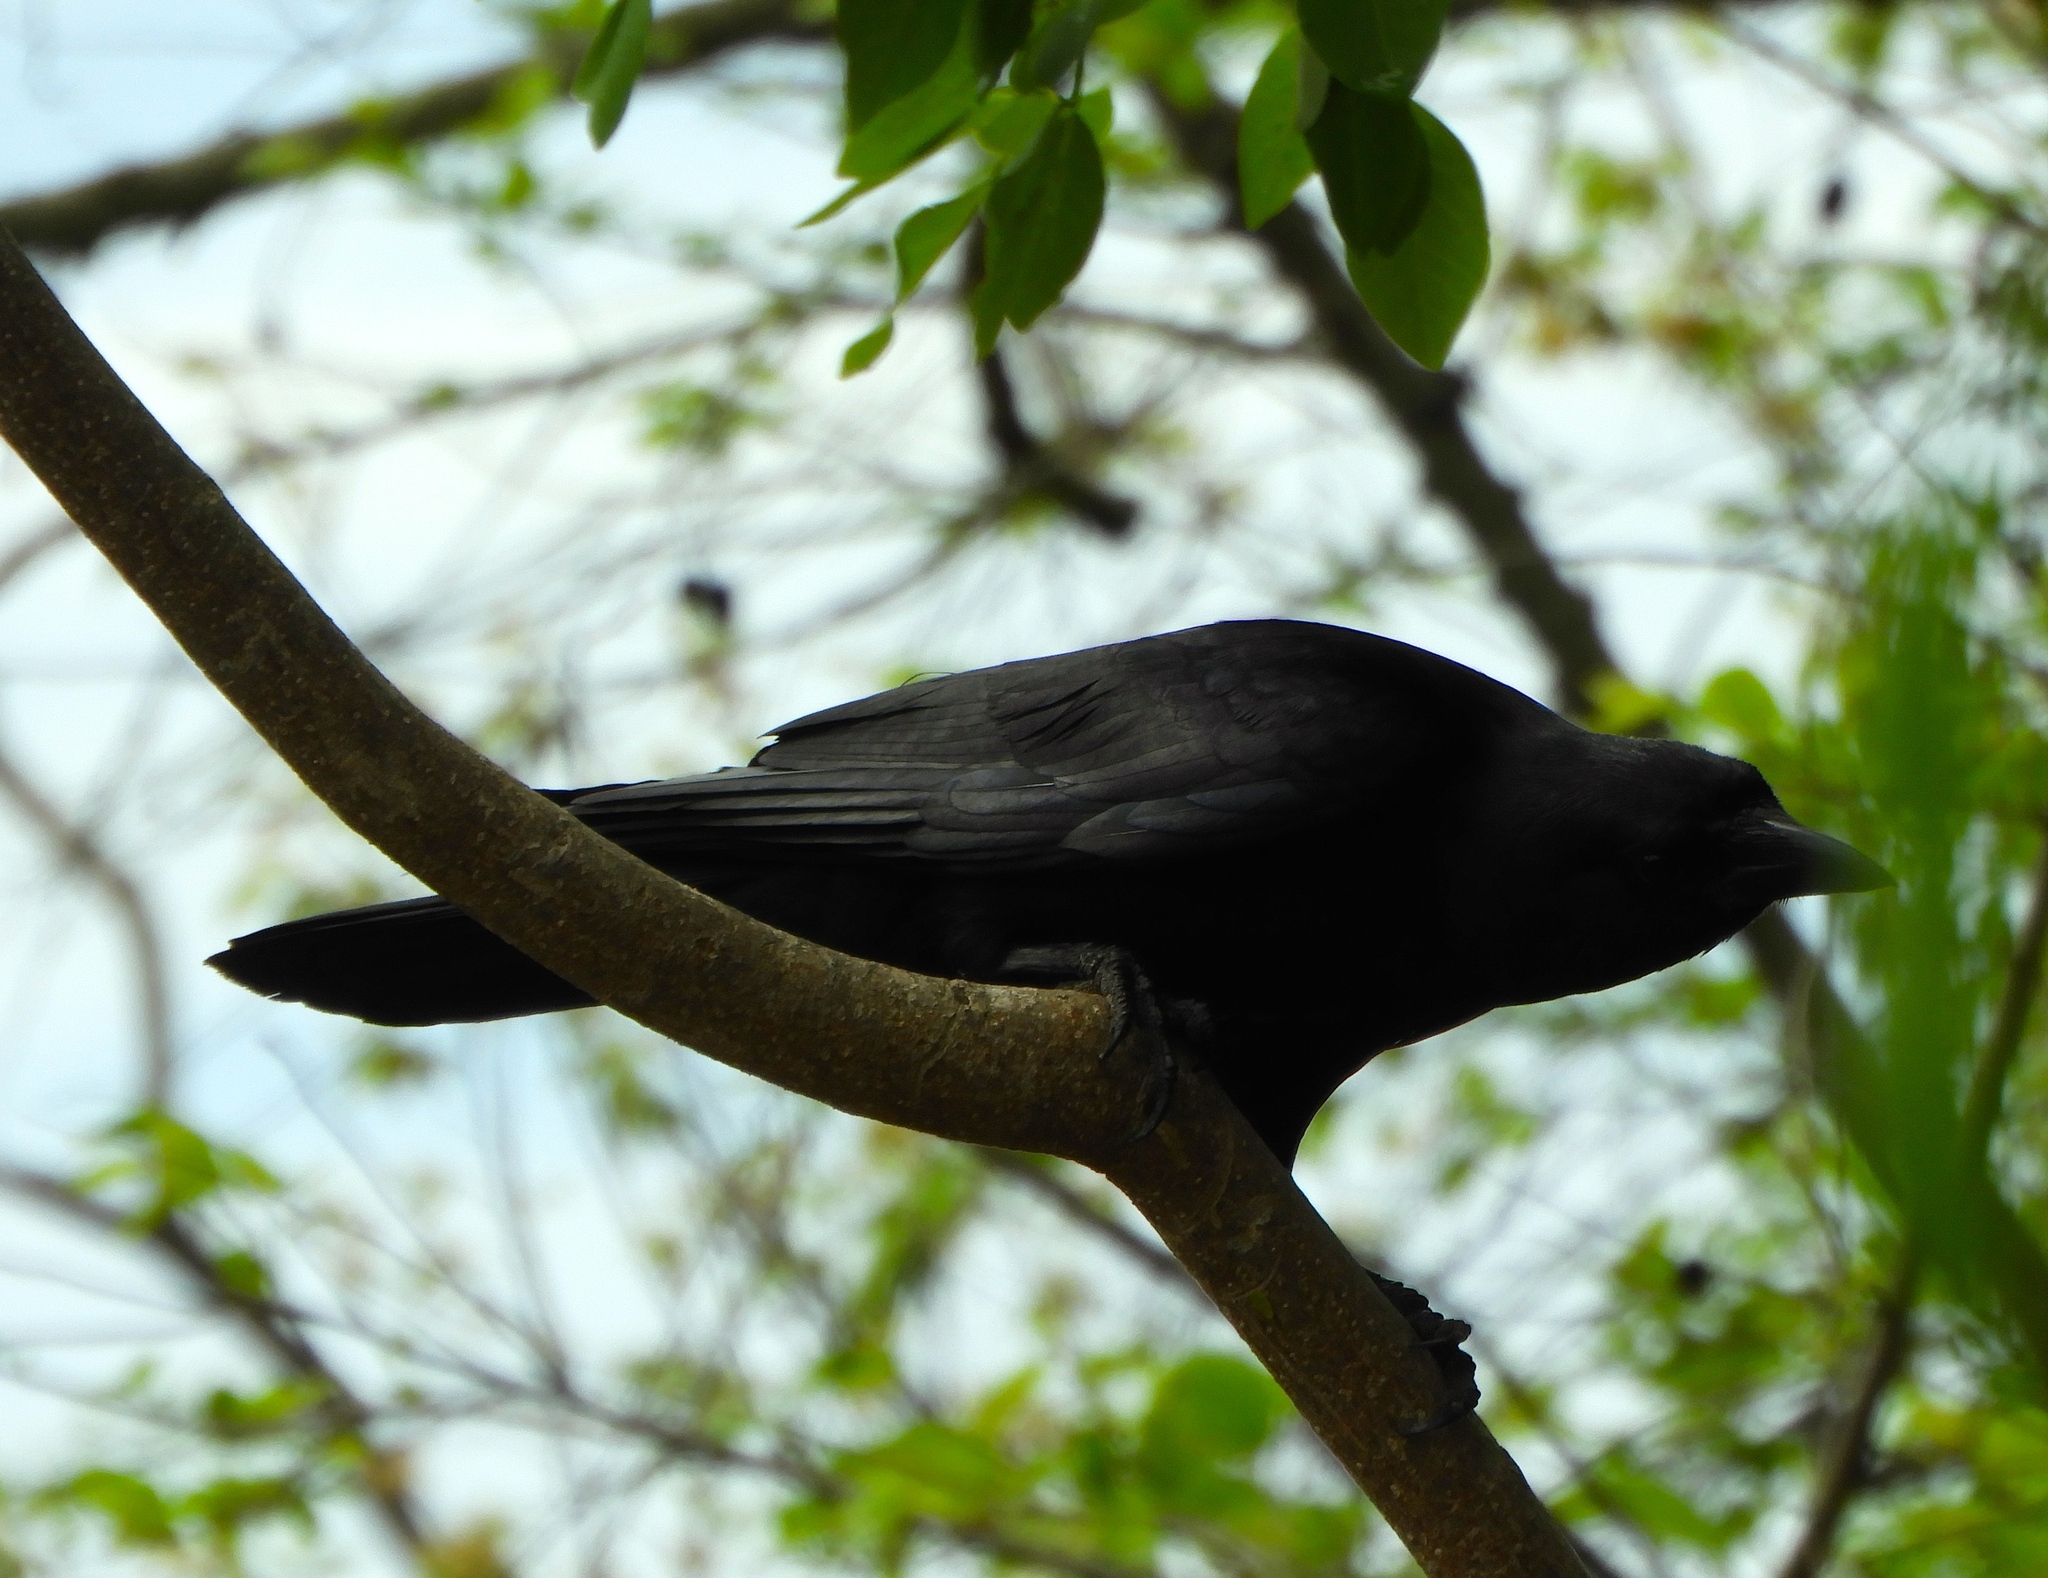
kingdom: Animalia
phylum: Chordata
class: Aves
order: Passeriformes
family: Corvidae
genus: Corvus
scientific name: Corvus sinaloae
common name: Sinaloa crow
